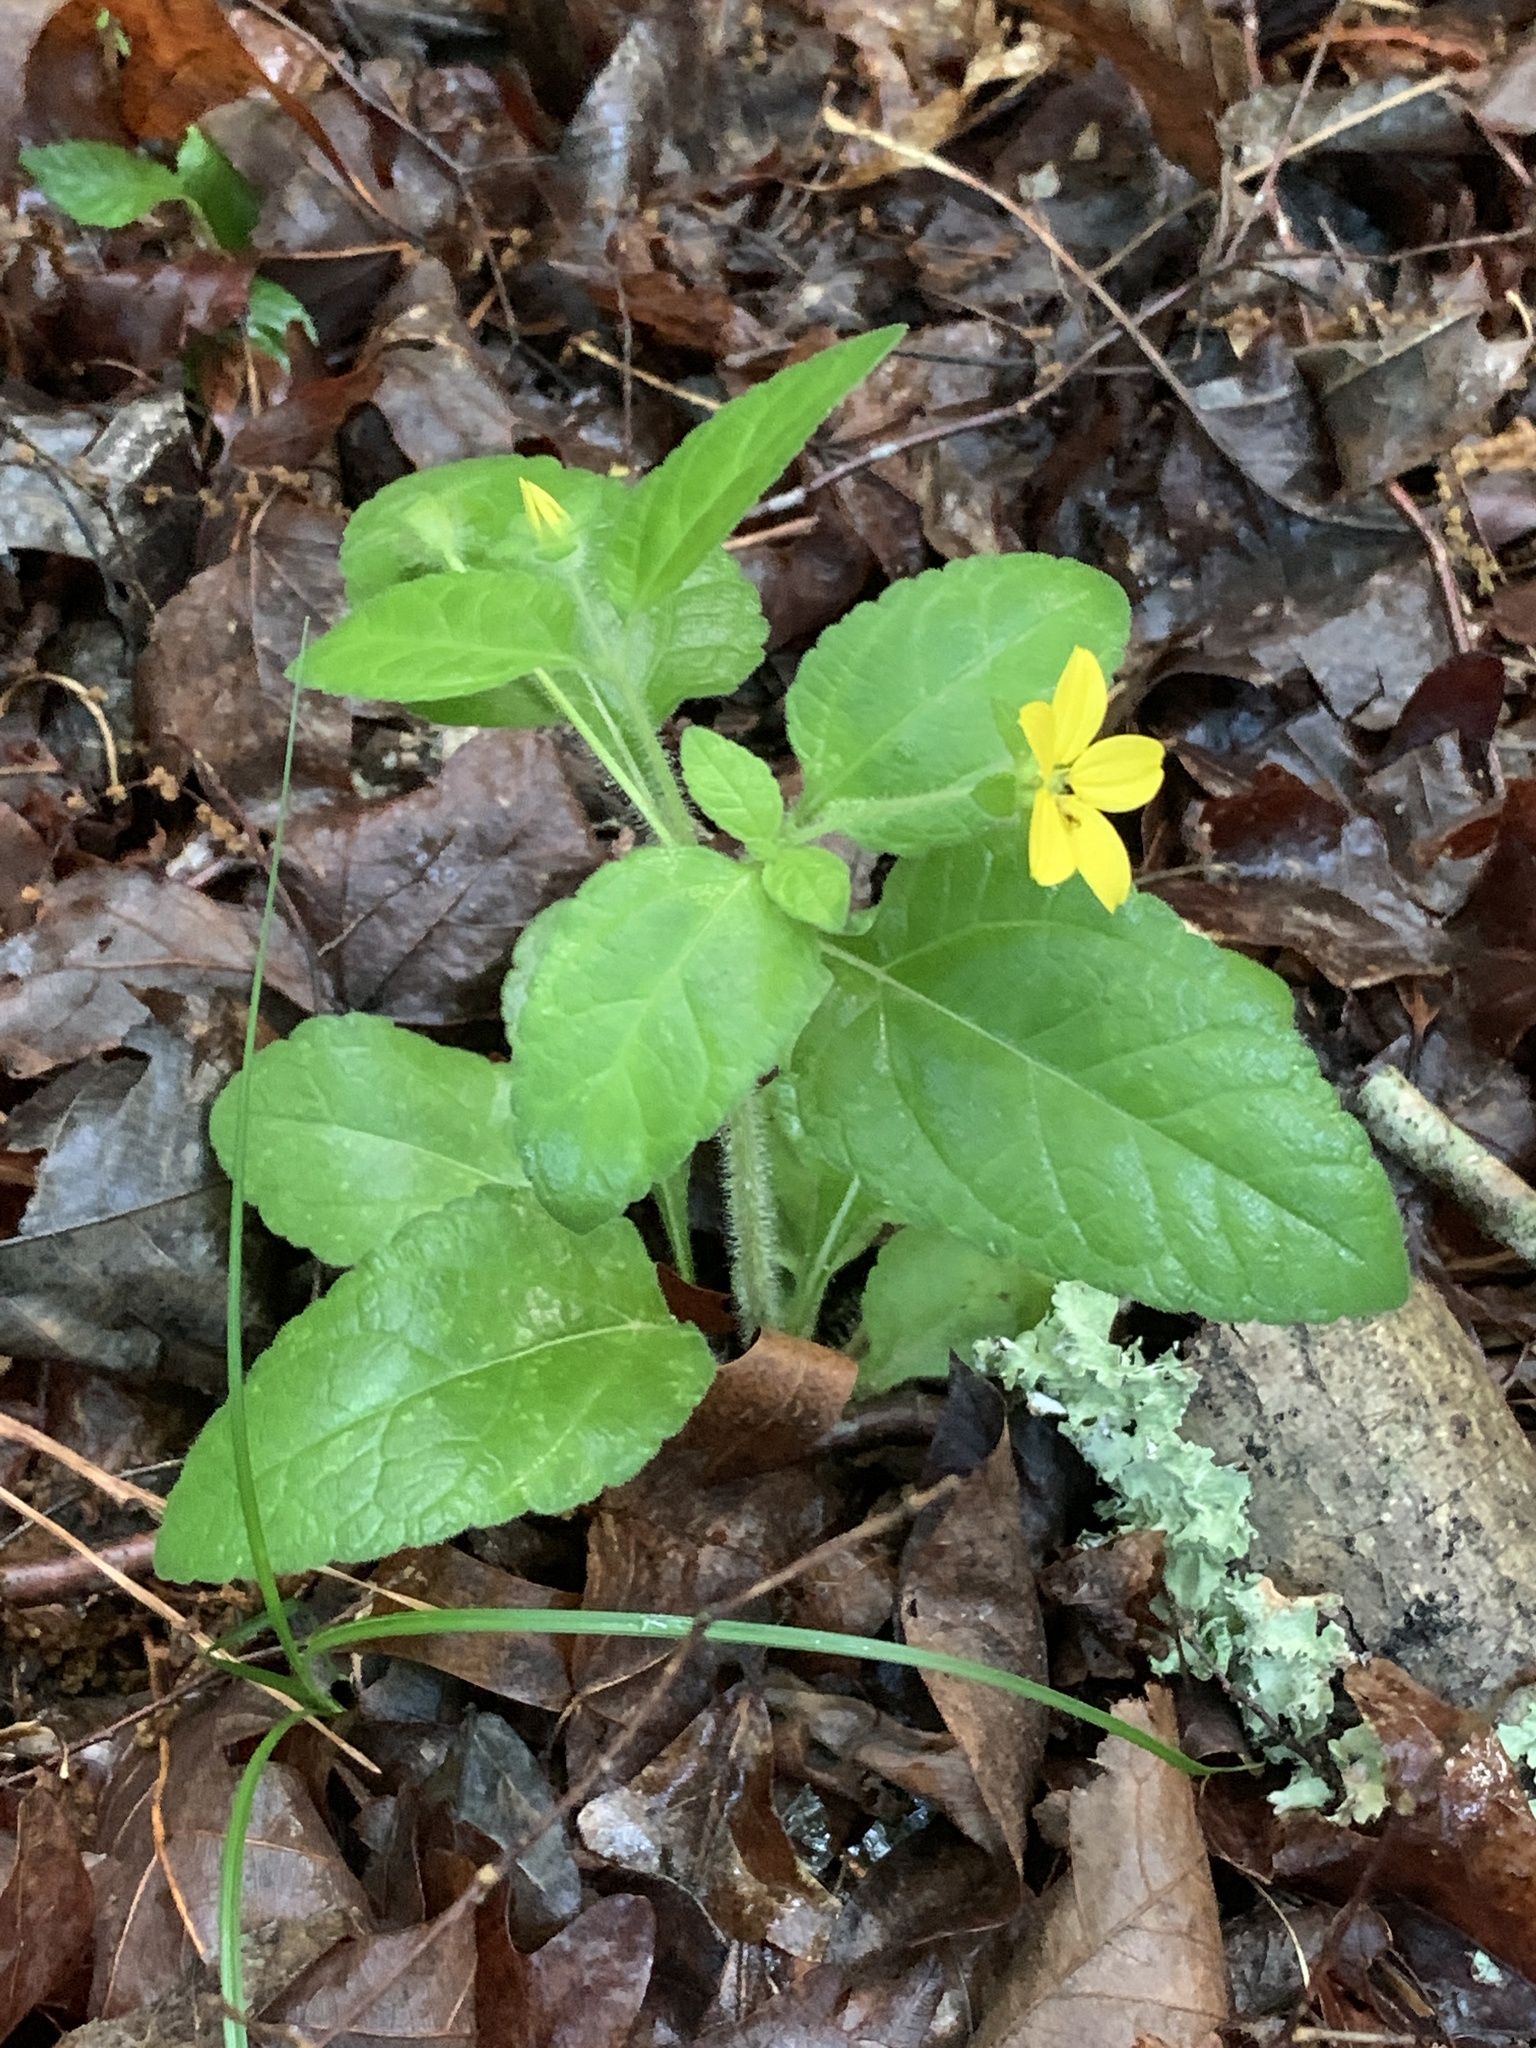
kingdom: Plantae
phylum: Tracheophyta
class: Magnoliopsida
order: Asterales
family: Asteraceae
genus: Chrysogonum
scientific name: Chrysogonum virginianum
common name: Golden-knee
